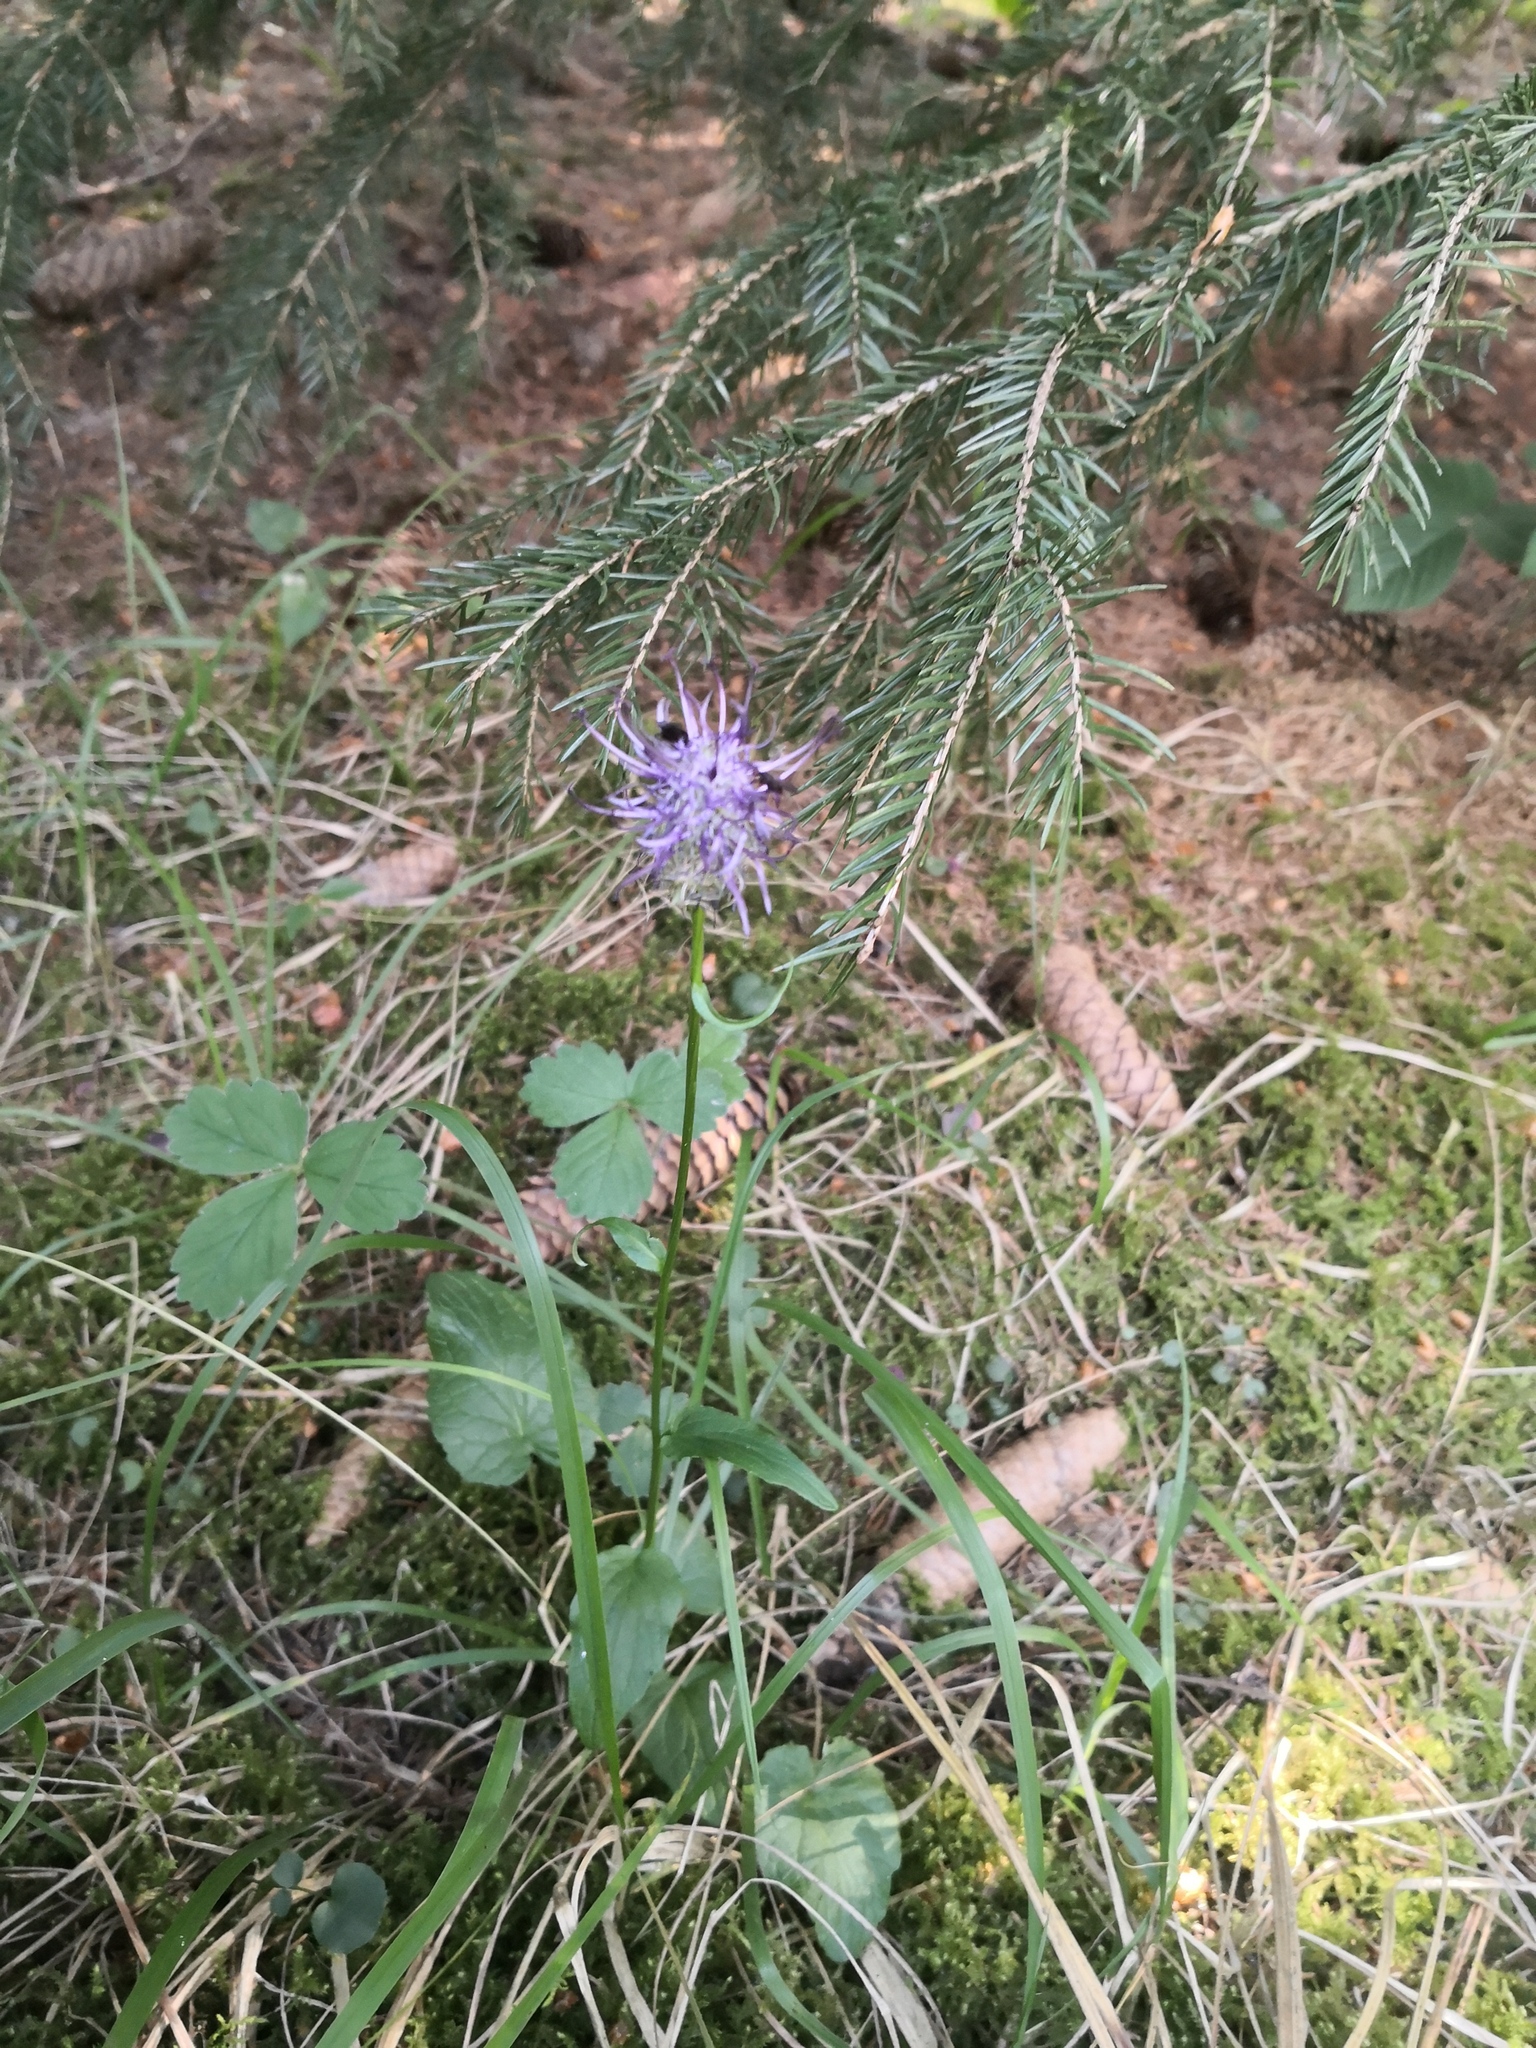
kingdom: Plantae
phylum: Tracheophyta
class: Magnoliopsida
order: Asterales
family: Campanulaceae
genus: Phyteuma
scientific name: Phyteuma nigrum
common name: Black rampion
